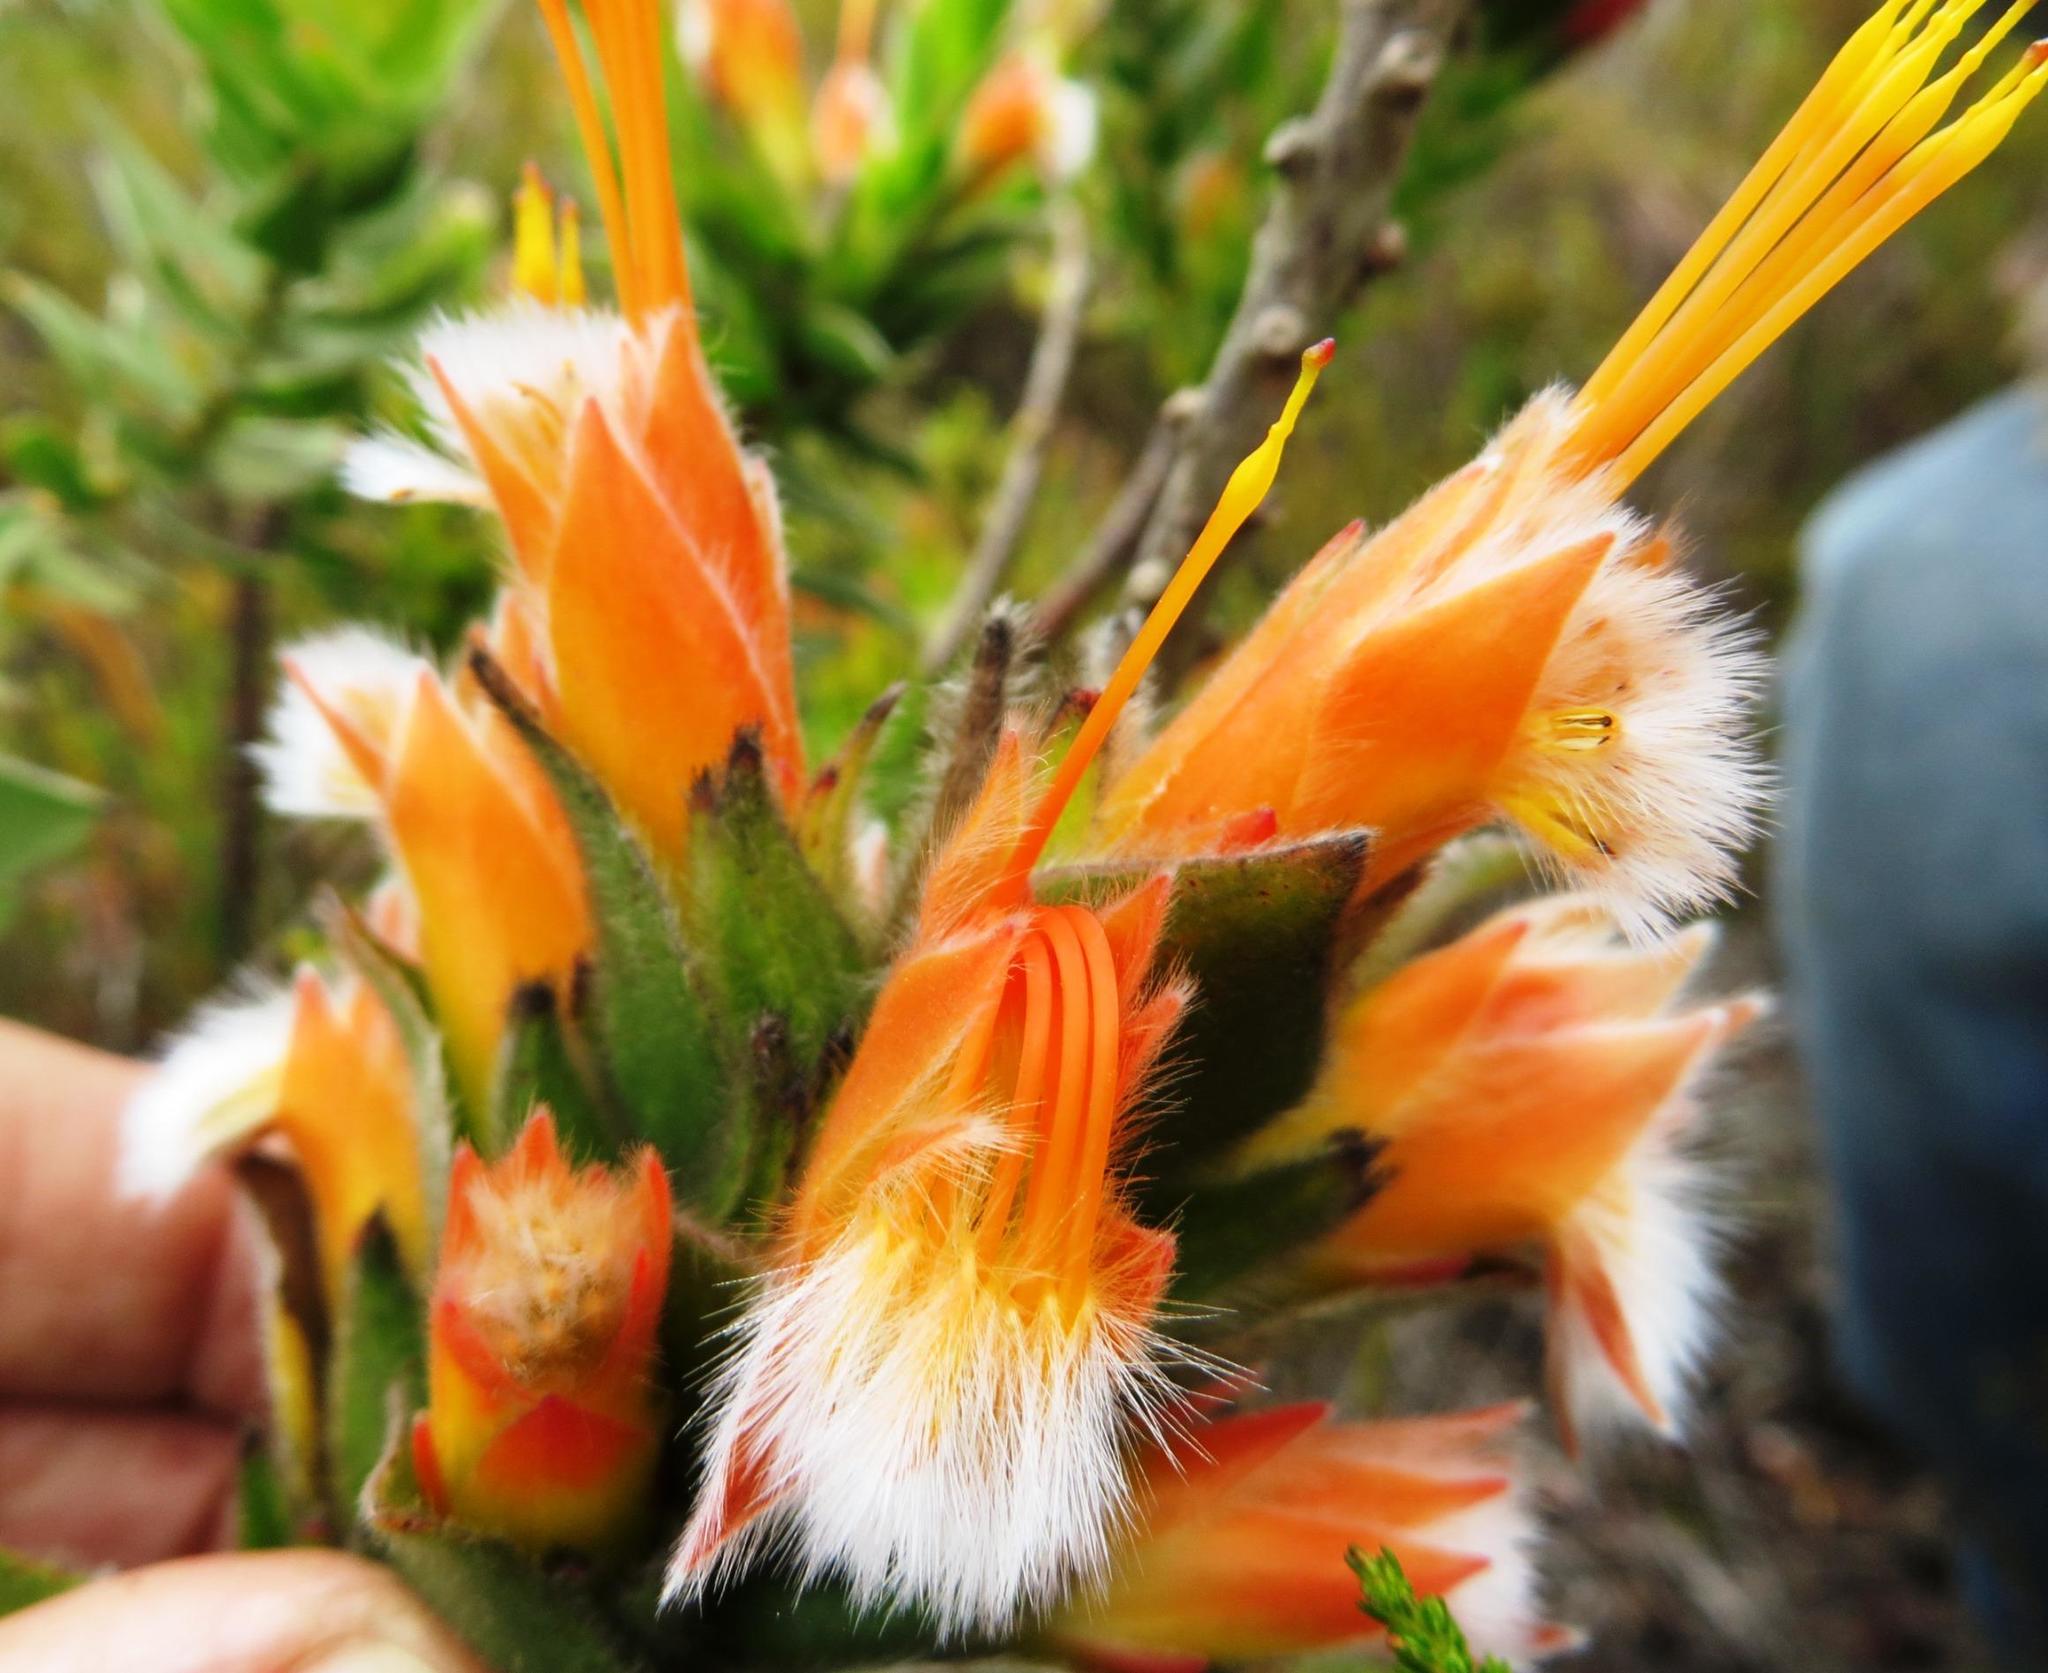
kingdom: Plantae
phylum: Tracheophyta
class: Magnoliopsida
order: Proteales
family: Proteaceae
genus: Mimetes
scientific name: Mimetes capitulatus
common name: Conical pagoda
